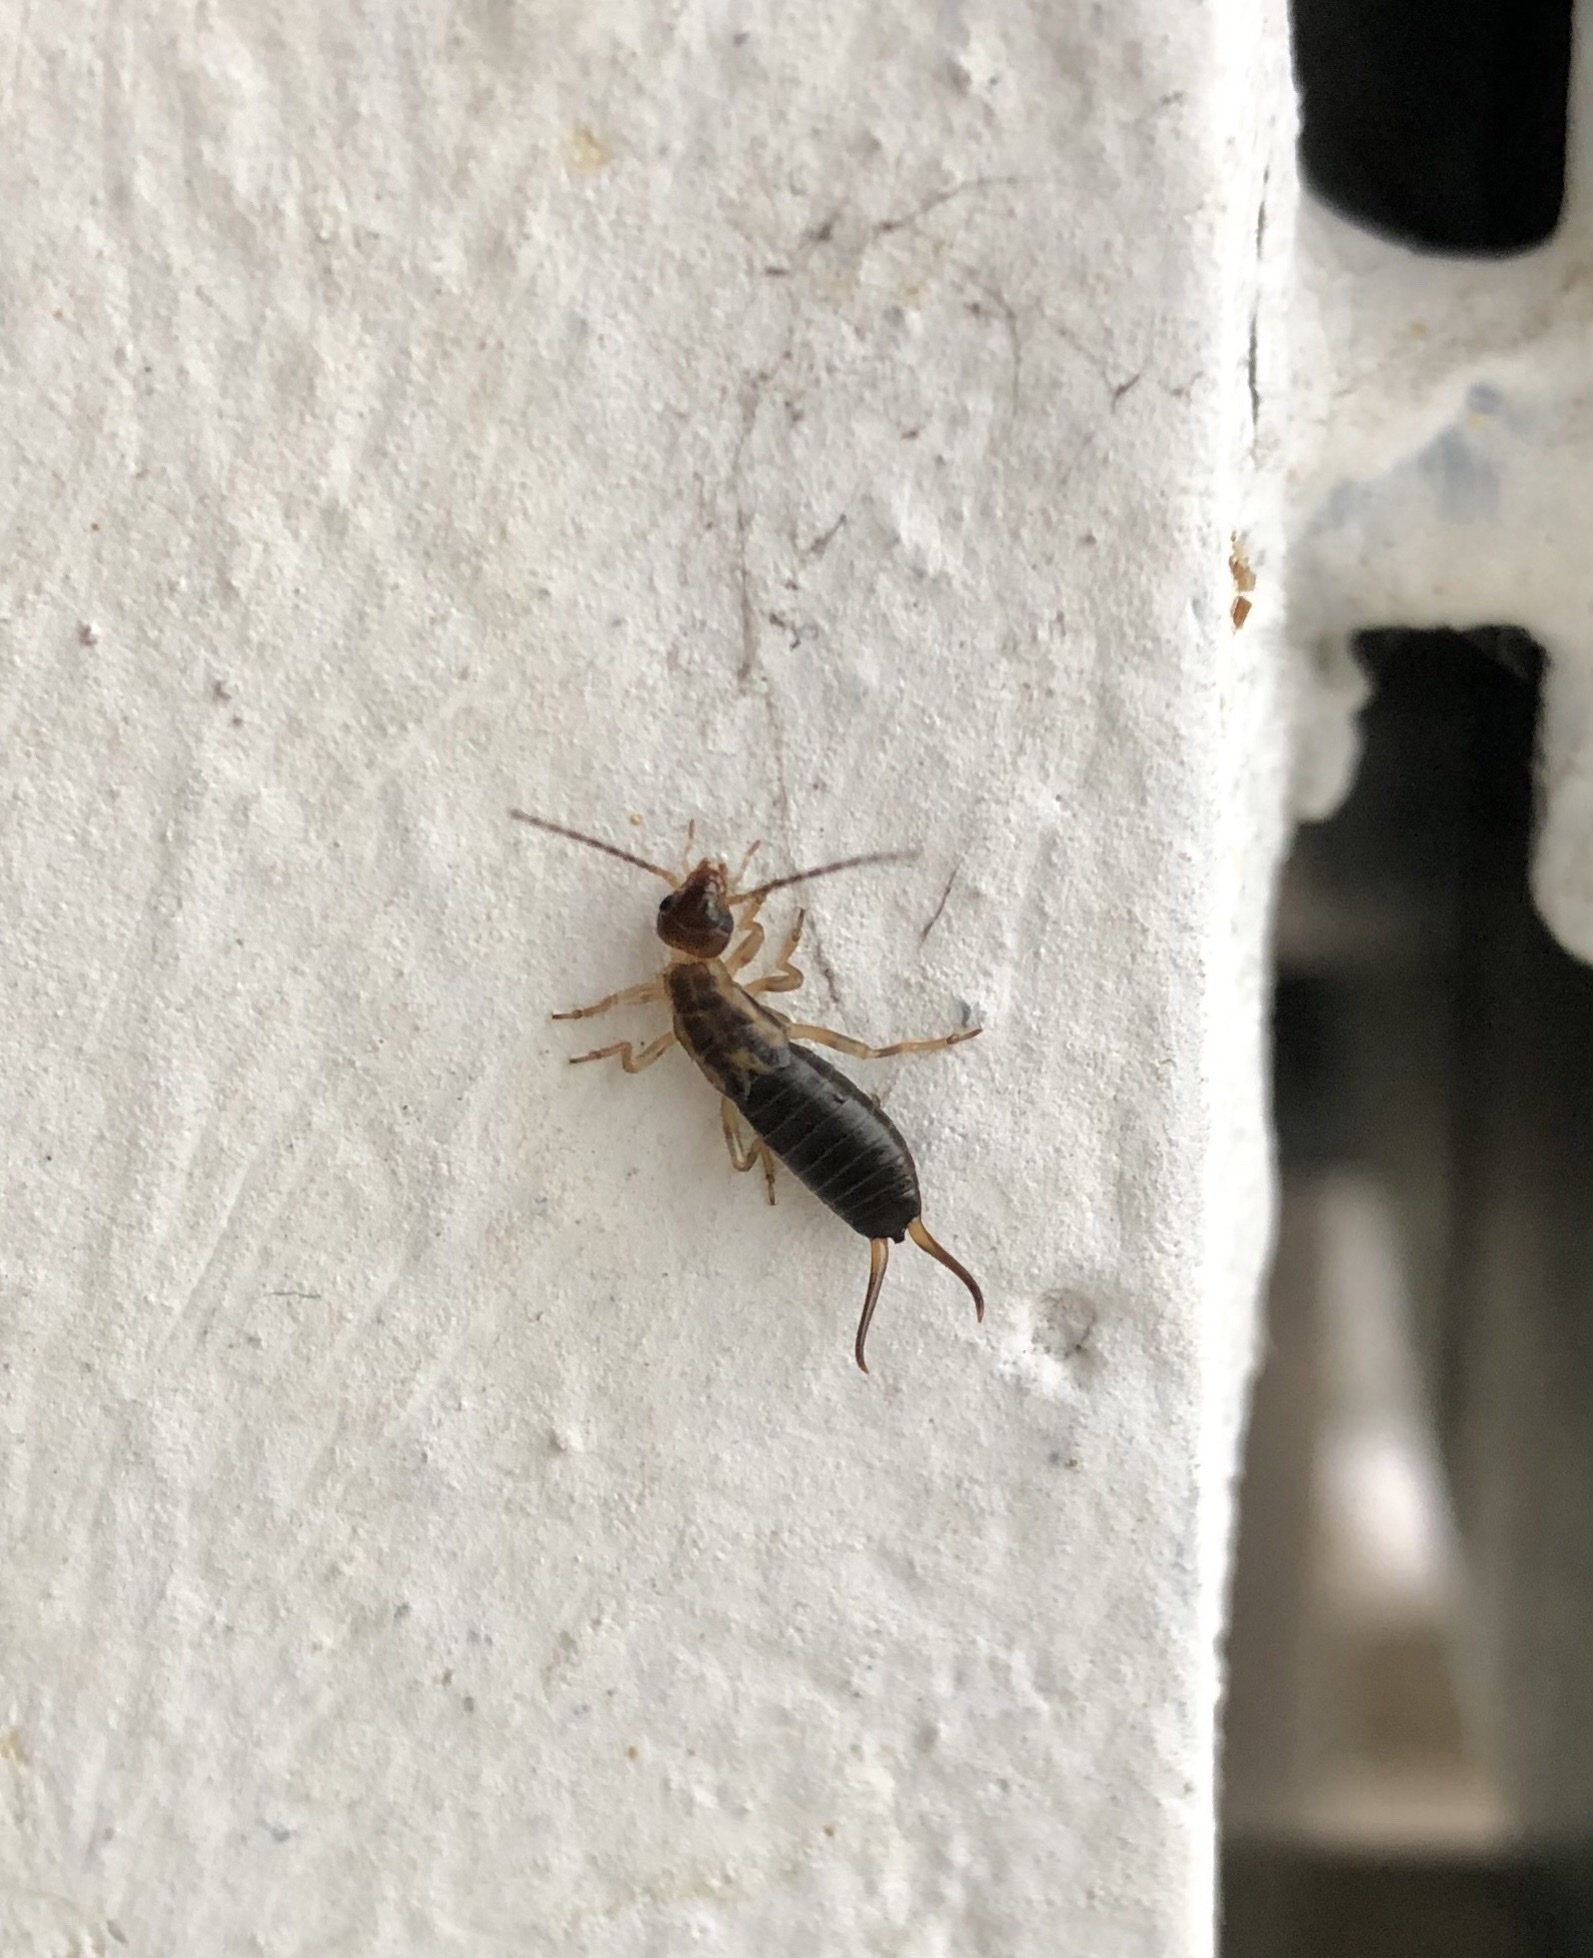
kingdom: Animalia
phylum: Arthropoda
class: Insecta
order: Dermaptera
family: Forficulidae
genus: Forficula
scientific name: Forficula
